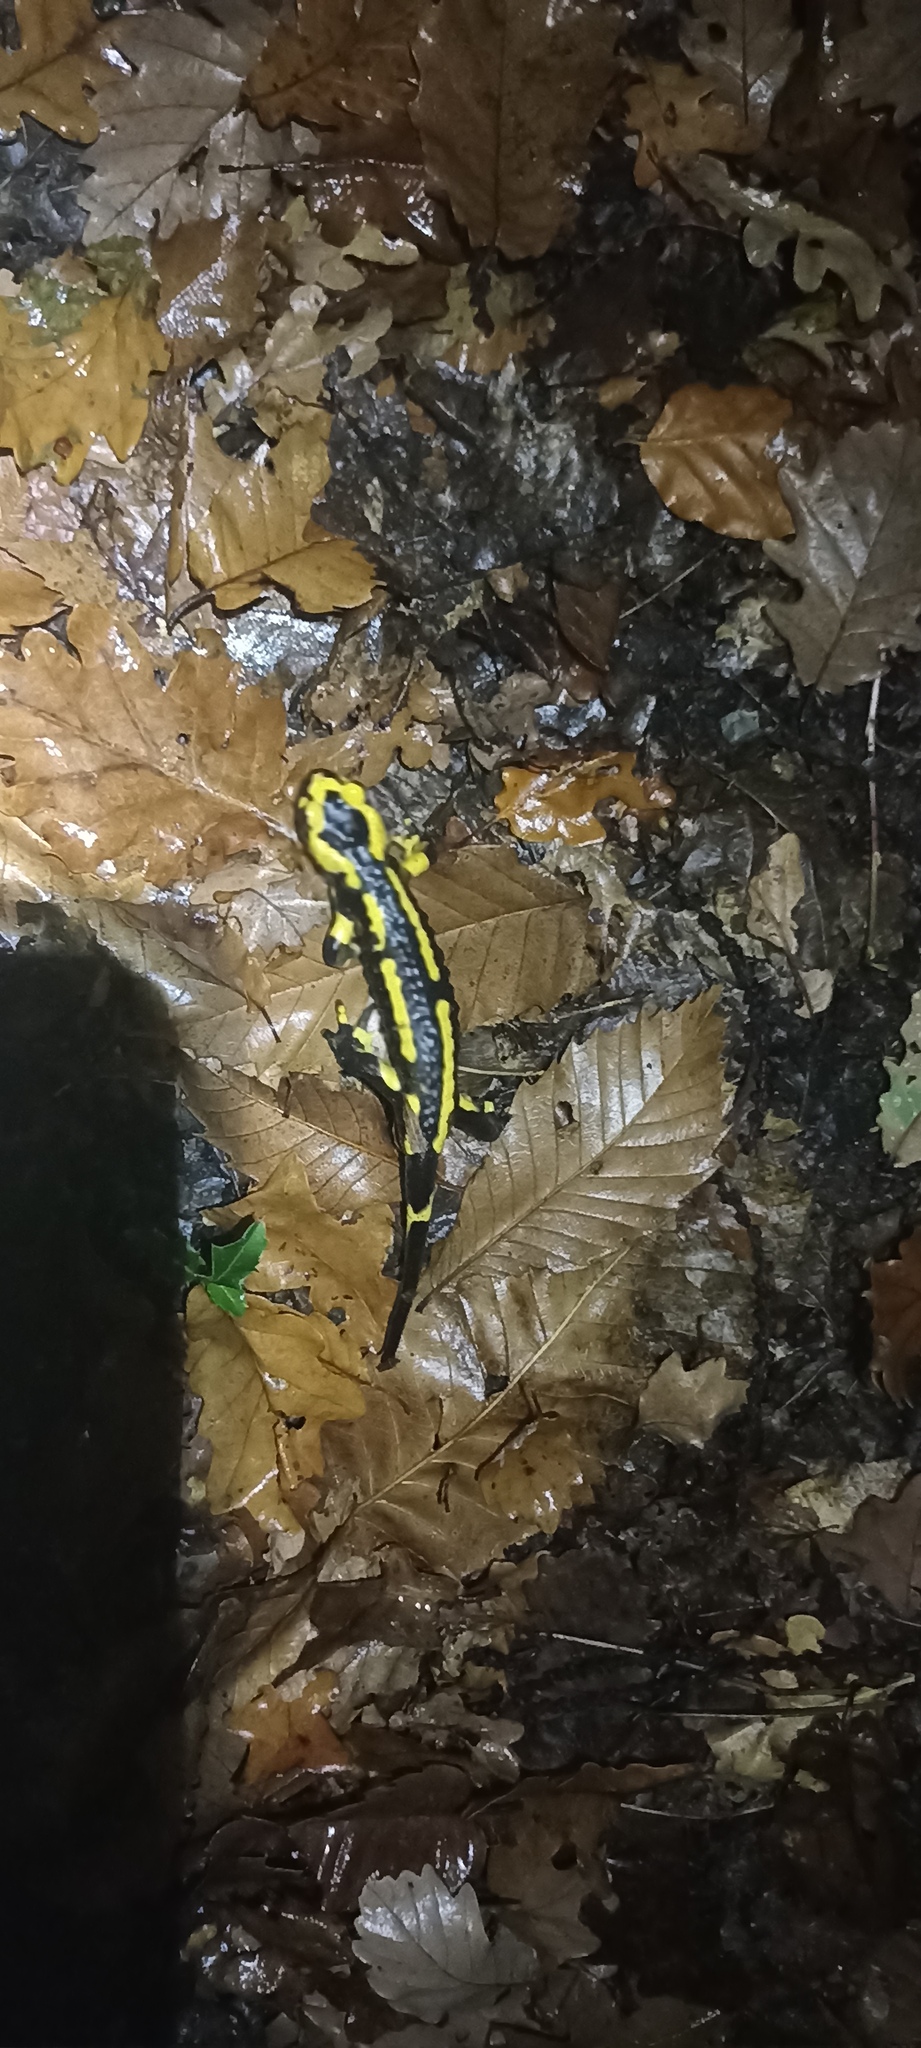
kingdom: Animalia
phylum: Chordata
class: Amphibia
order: Caudata
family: Salamandridae
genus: Salamandra
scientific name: Salamandra salamandra
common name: Fire salamander
